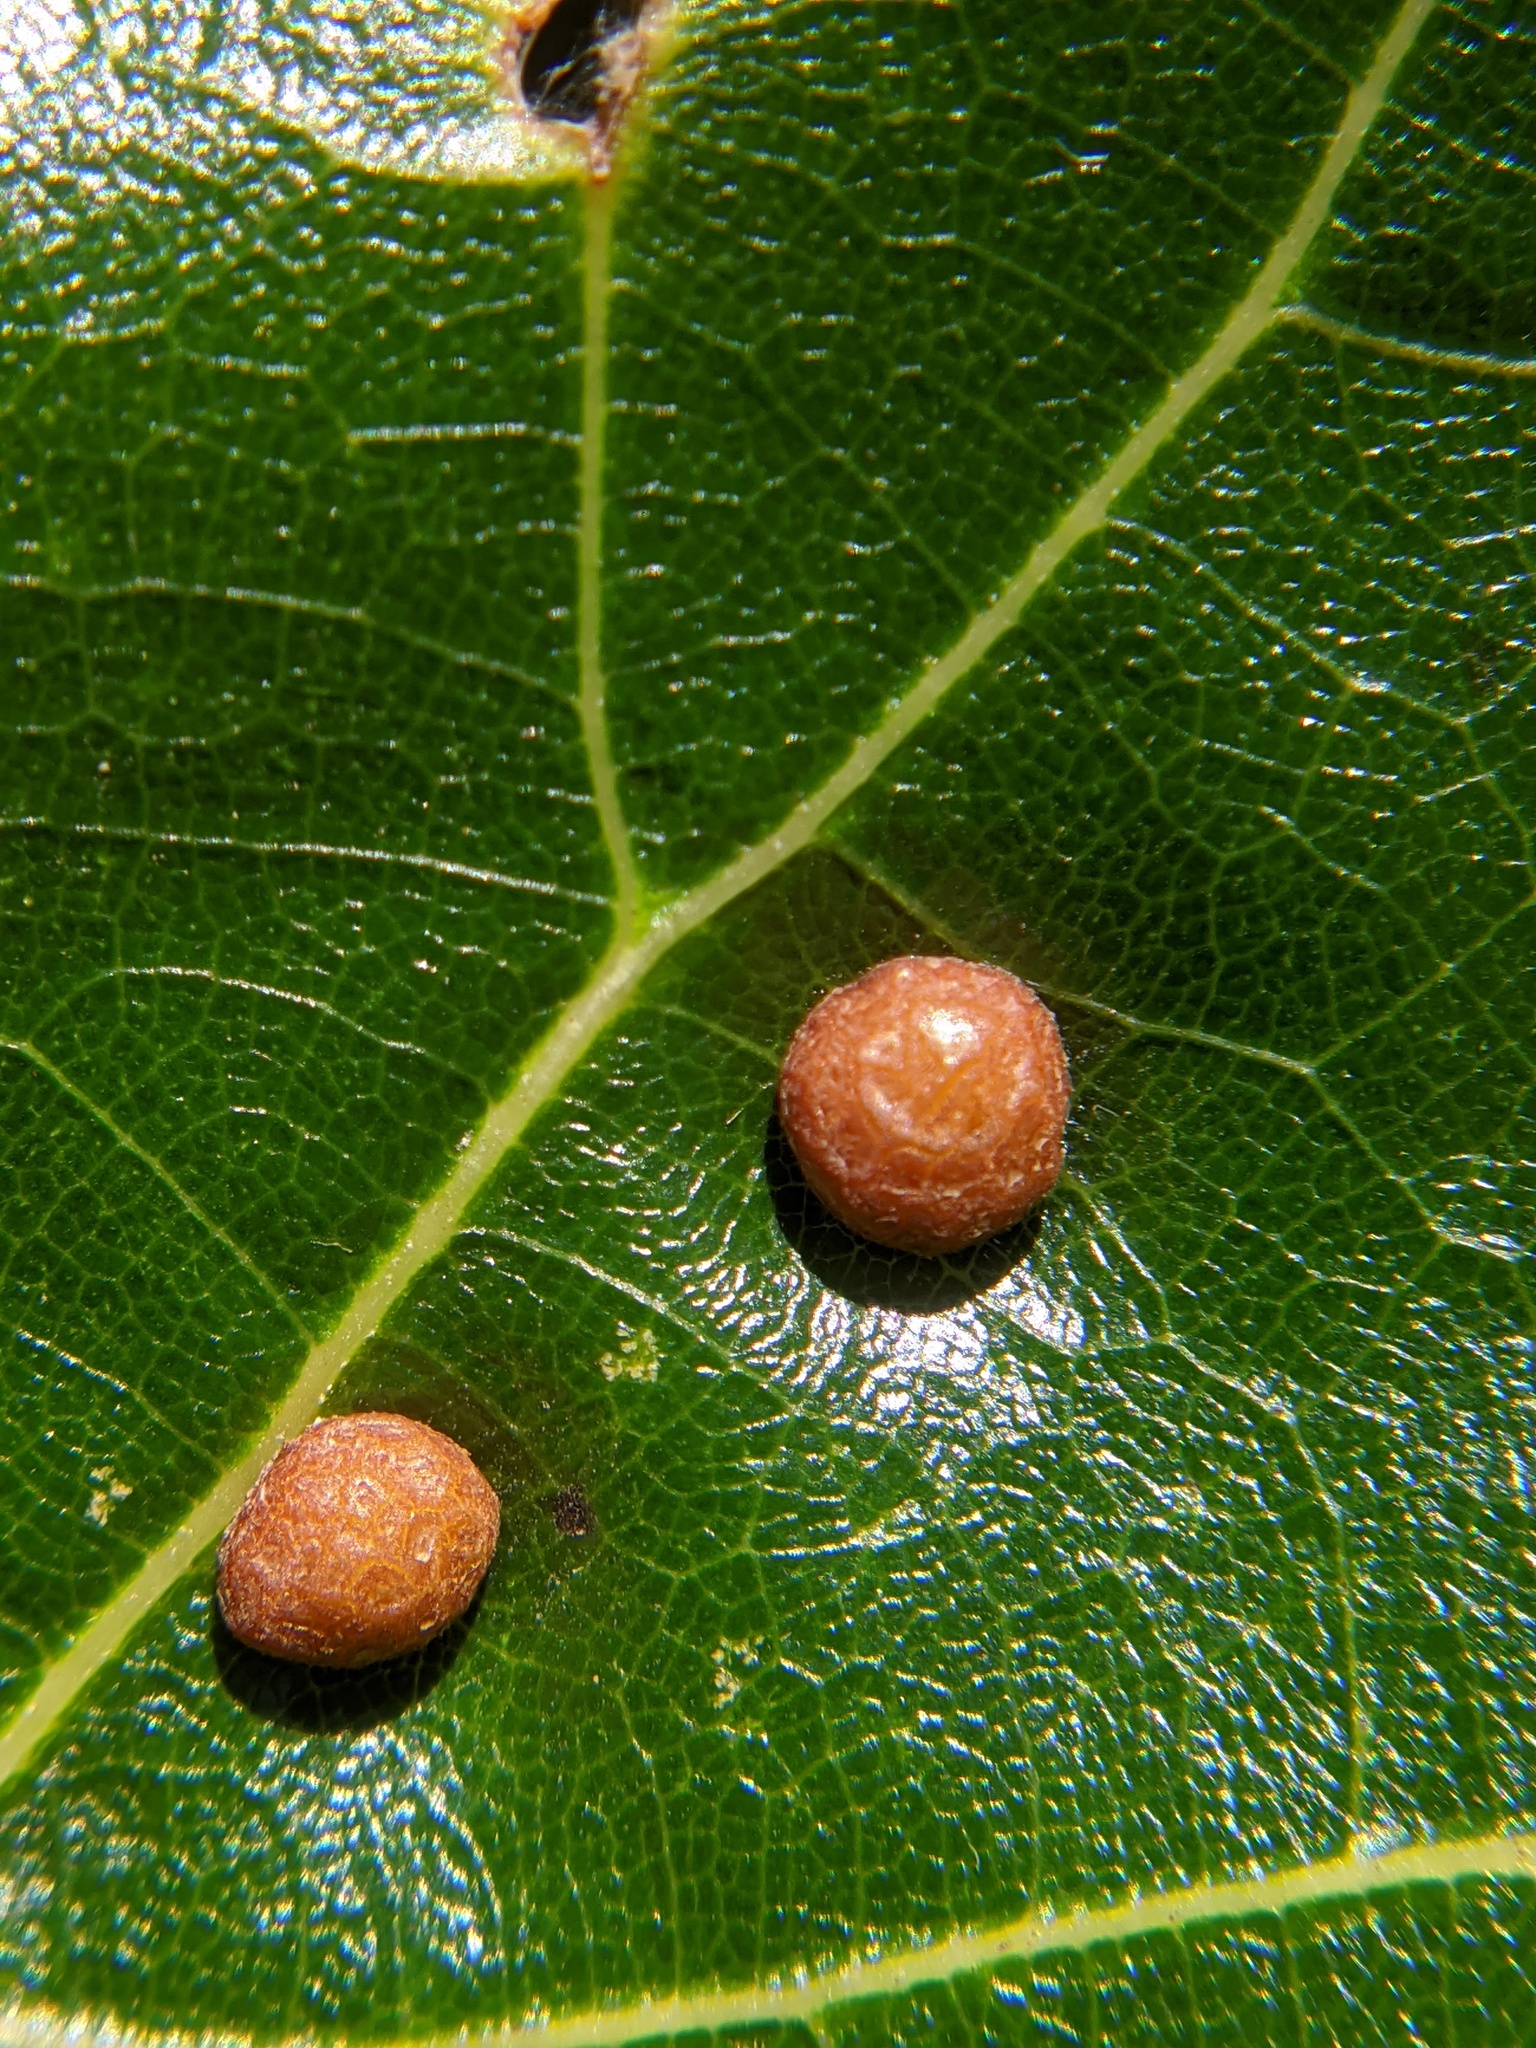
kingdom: Animalia
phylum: Arthropoda
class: Insecta
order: Diptera
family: Cecidomyiidae
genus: Polystepha
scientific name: Polystepha pilulae
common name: Oak leaf gall midge
